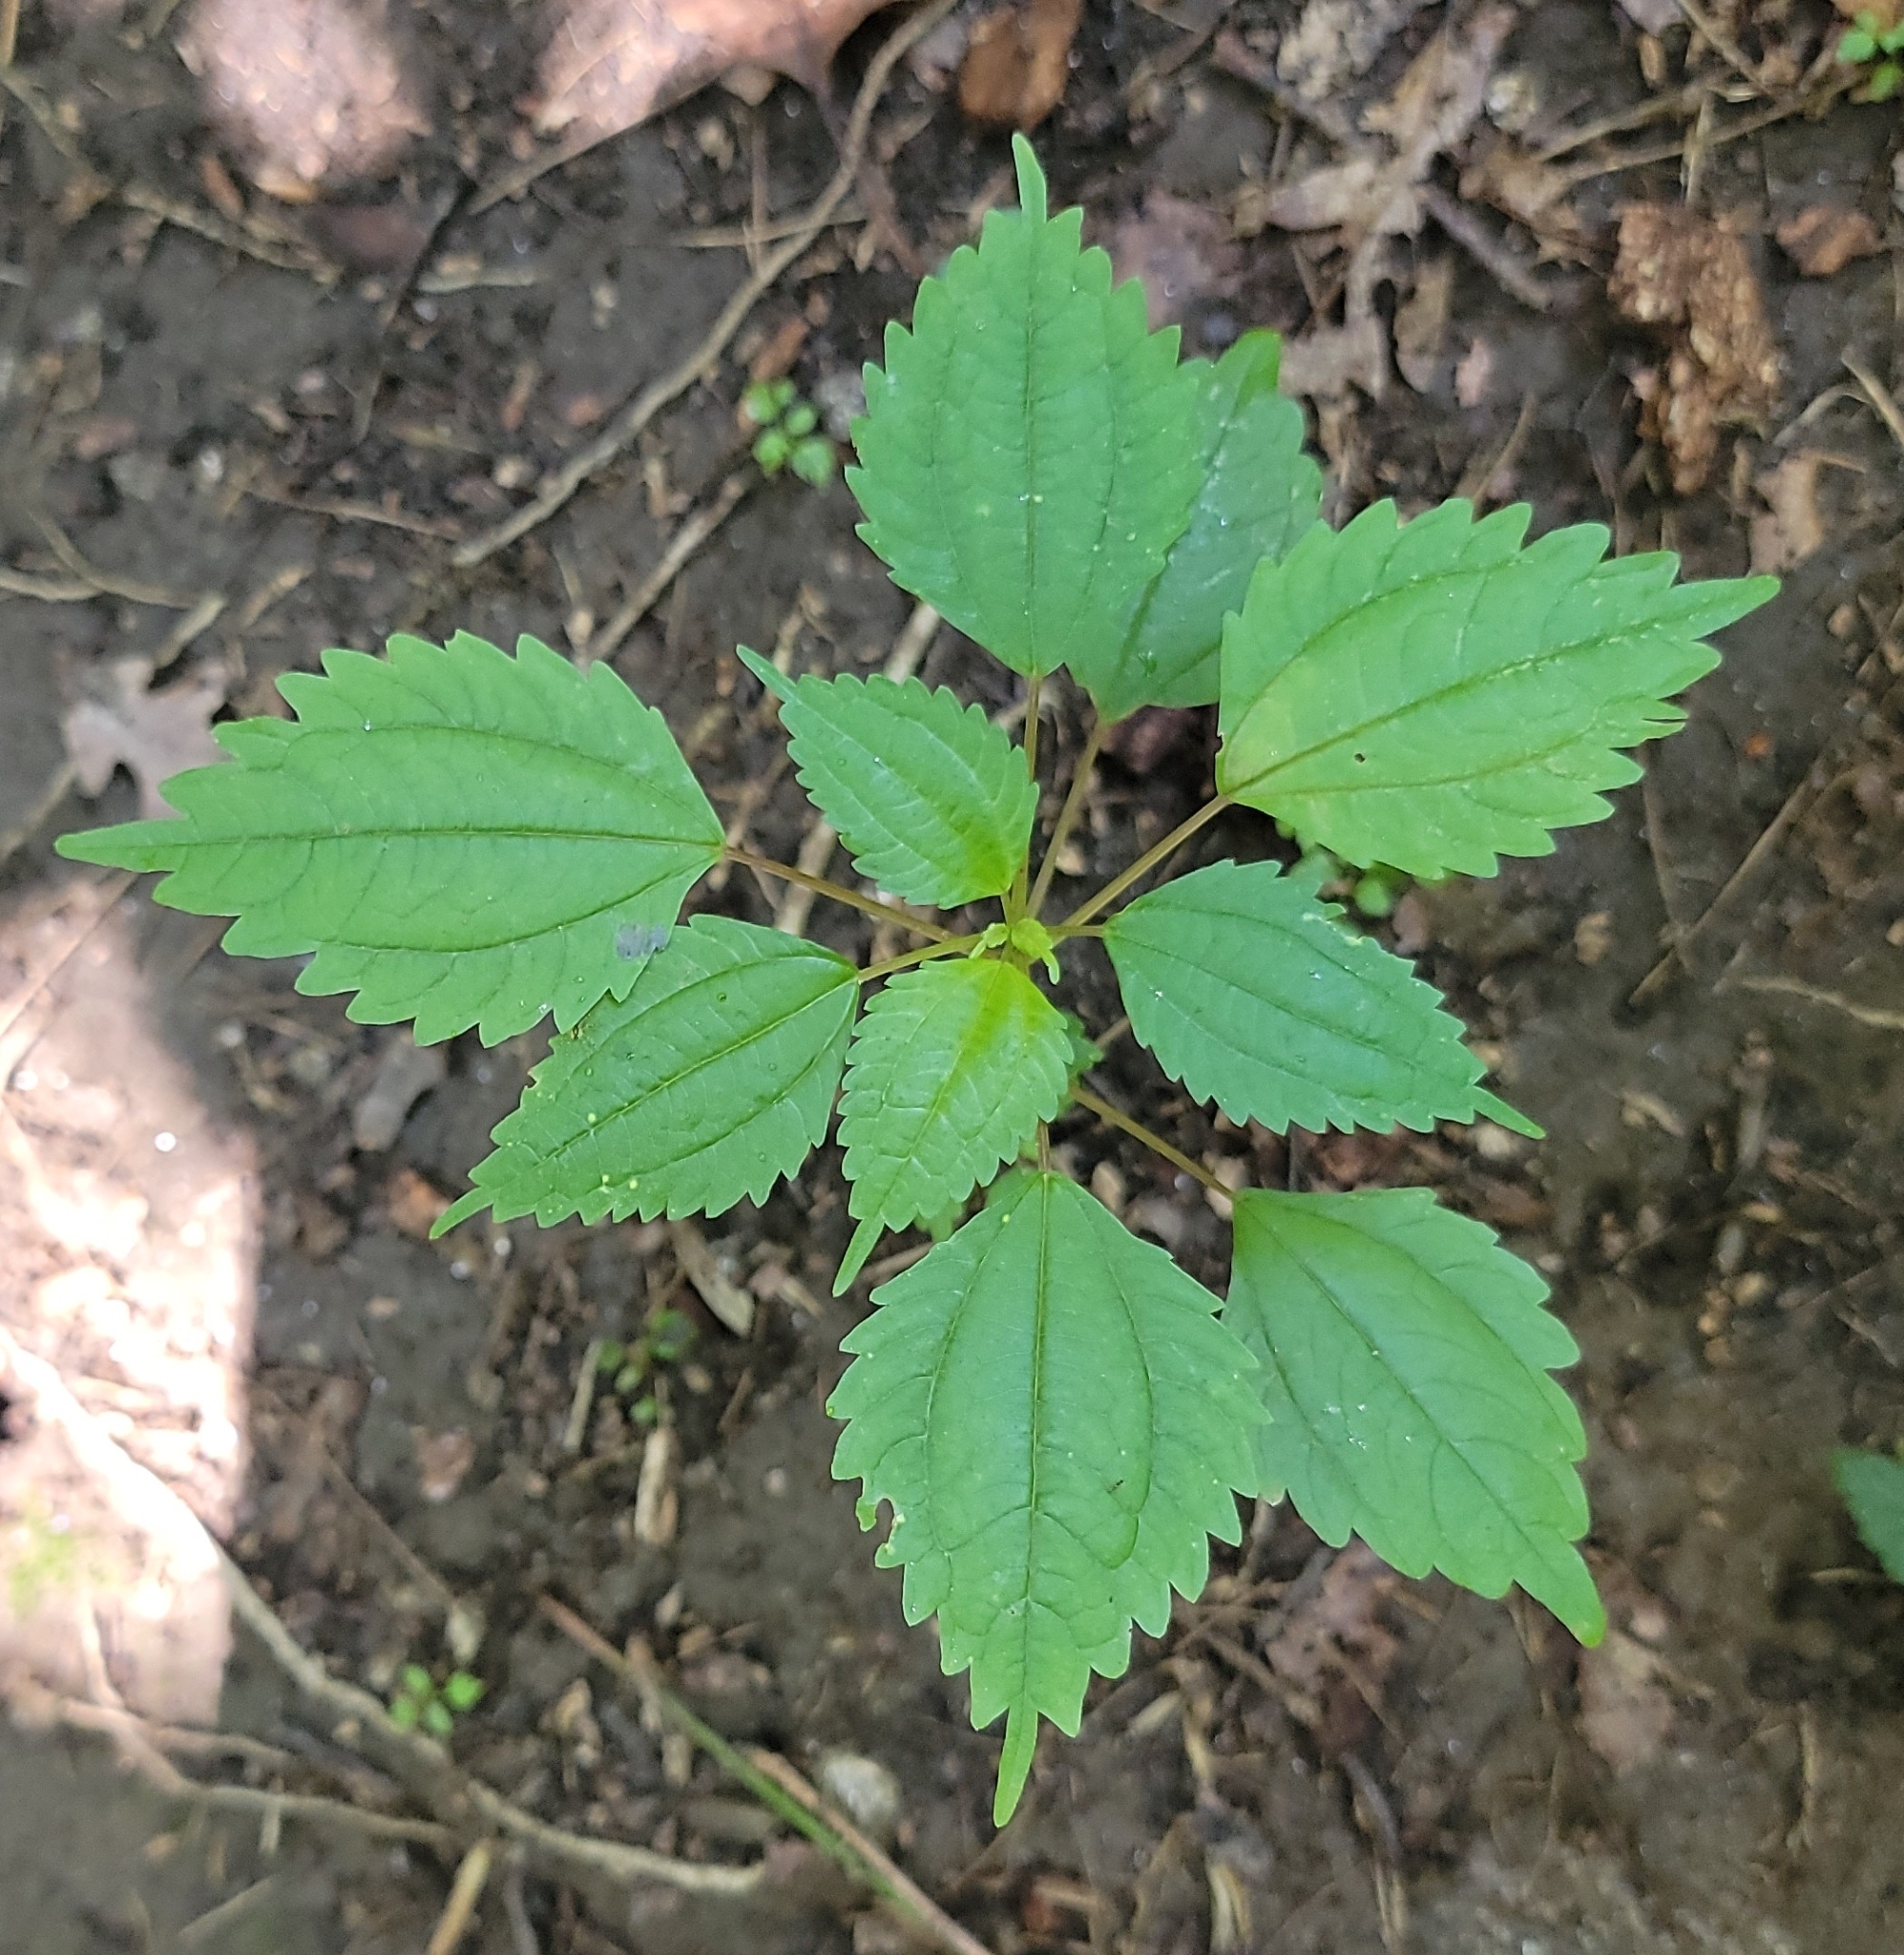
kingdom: Plantae
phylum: Tracheophyta
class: Magnoliopsida
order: Rosales
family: Urticaceae
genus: Pilea
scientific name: Pilea pumila
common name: Clearweed
